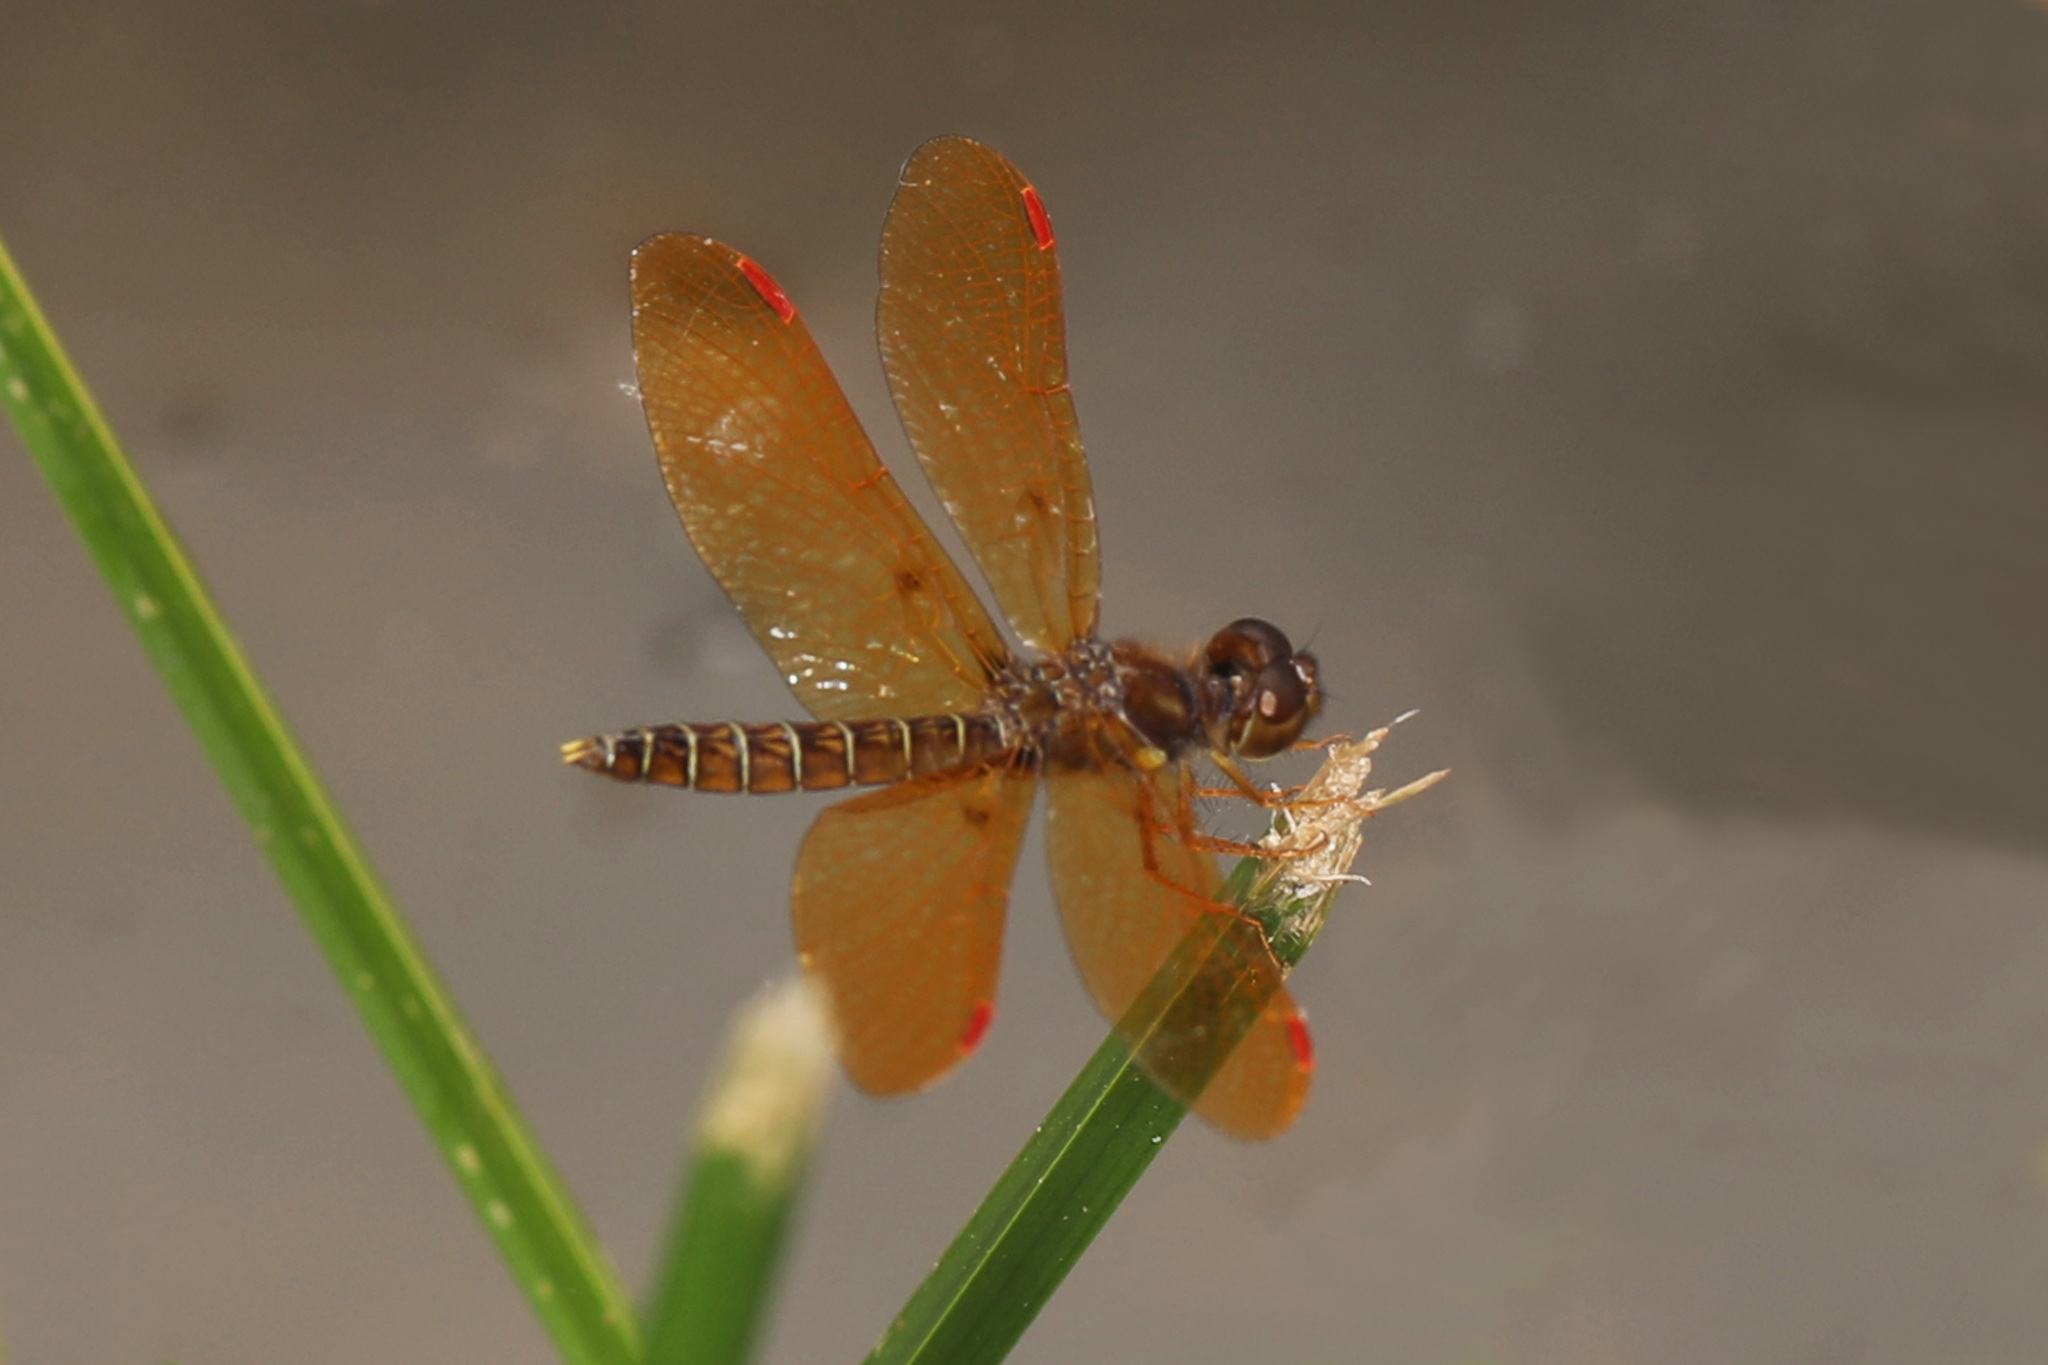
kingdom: Animalia
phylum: Arthropoda
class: Insecta
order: Odonata
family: Libellulidae
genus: Perithemis
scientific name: Perithemis tenera
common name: Eastern amberwing
